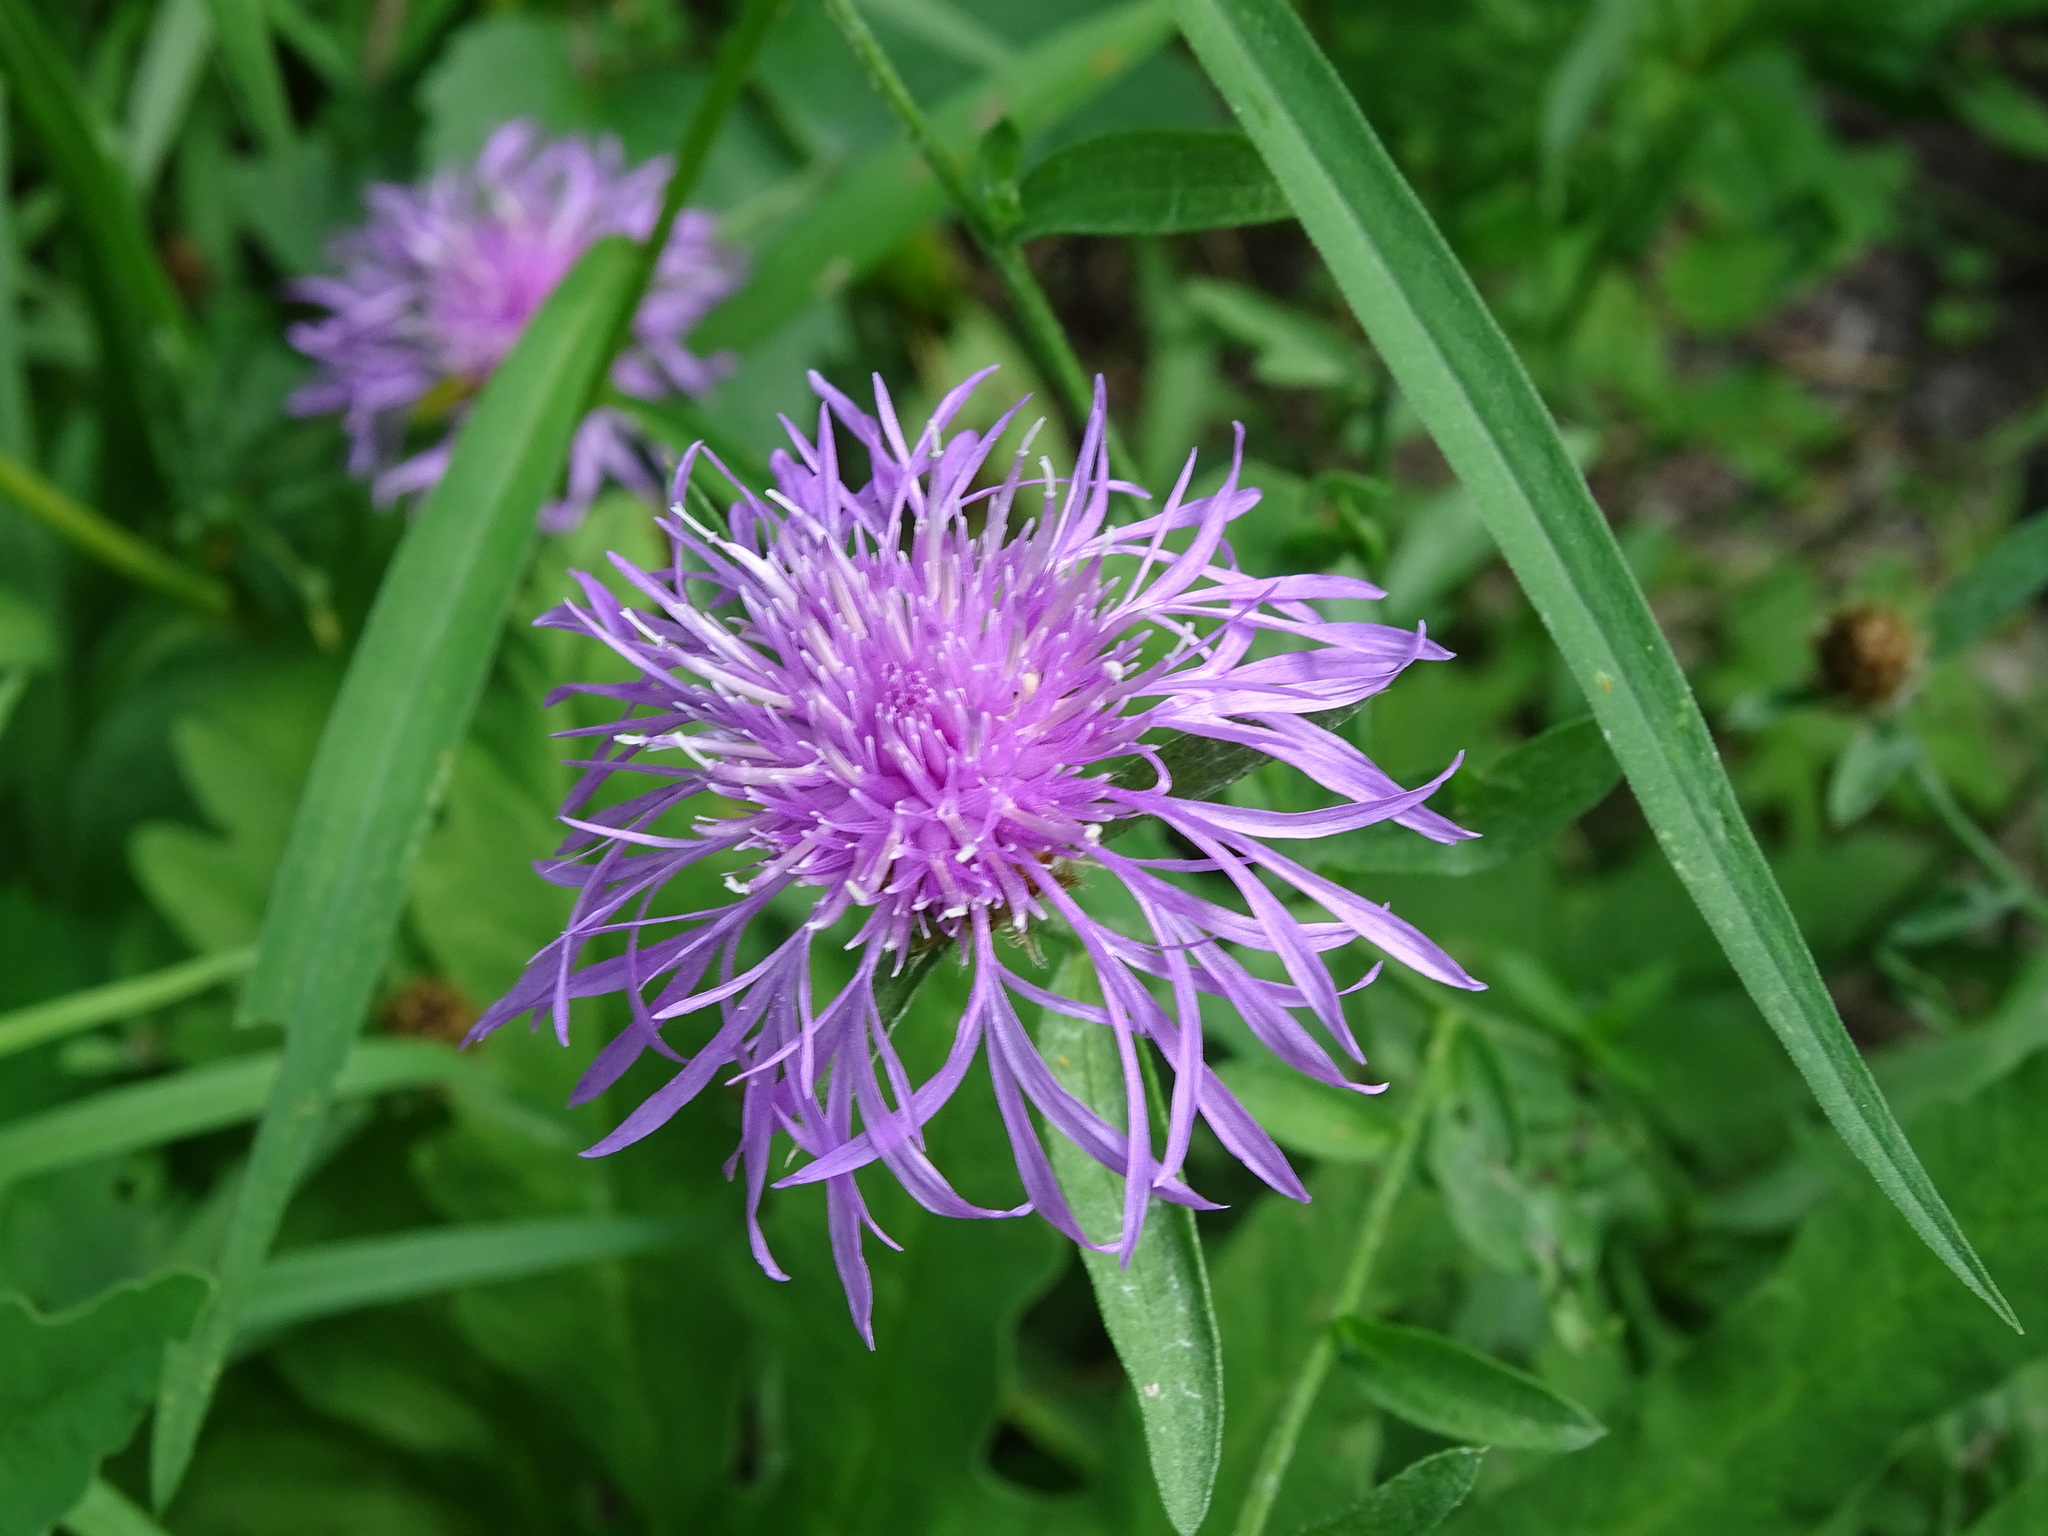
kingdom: Plantae
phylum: Tracheophyta
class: Magnoliopsida
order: Asterales
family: Asteraceae
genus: Centaurea
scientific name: Centaurea moncktonii
